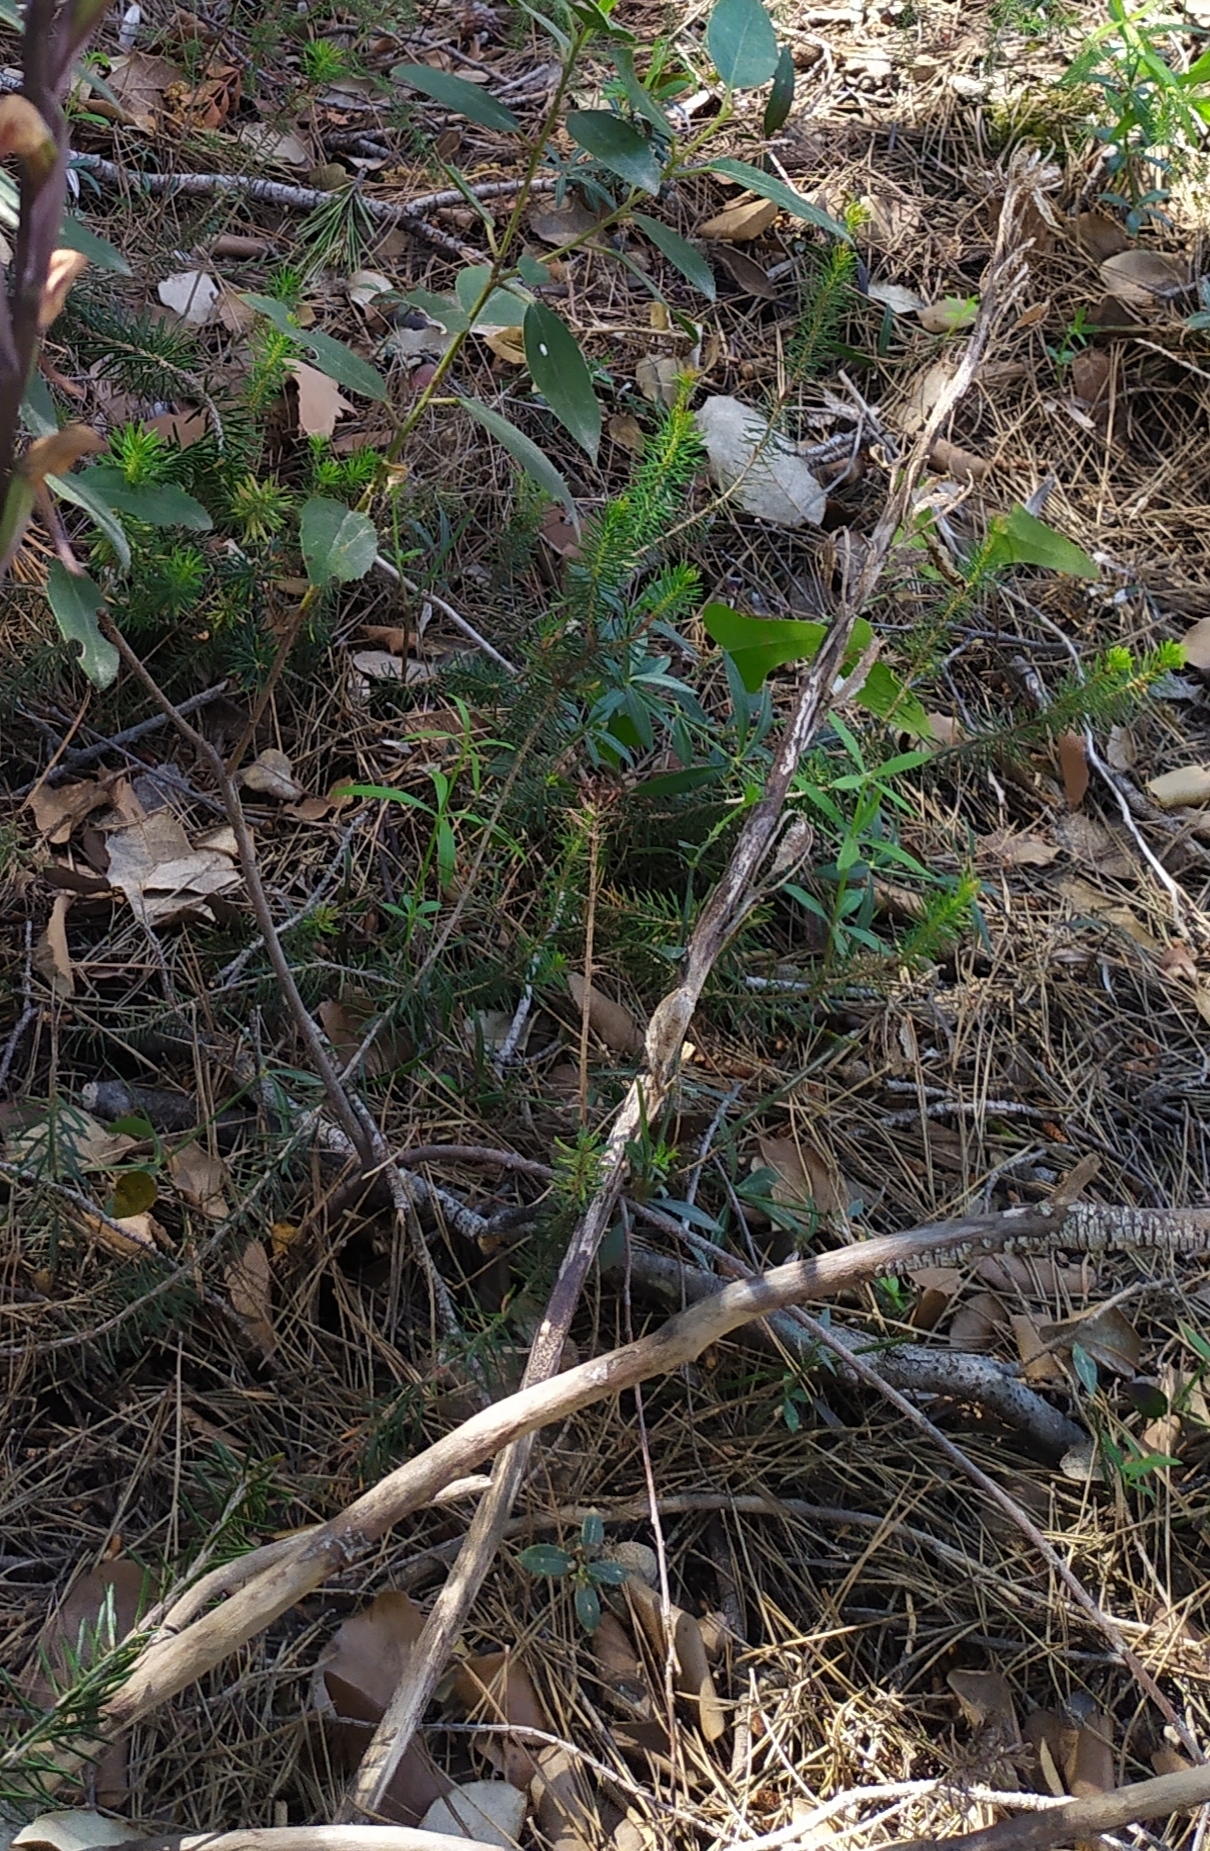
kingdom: Plantae
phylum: Tracheophyta
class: Magnoliopsida
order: Ericales
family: Ericaceae
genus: Erica
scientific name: Erica multiflora
